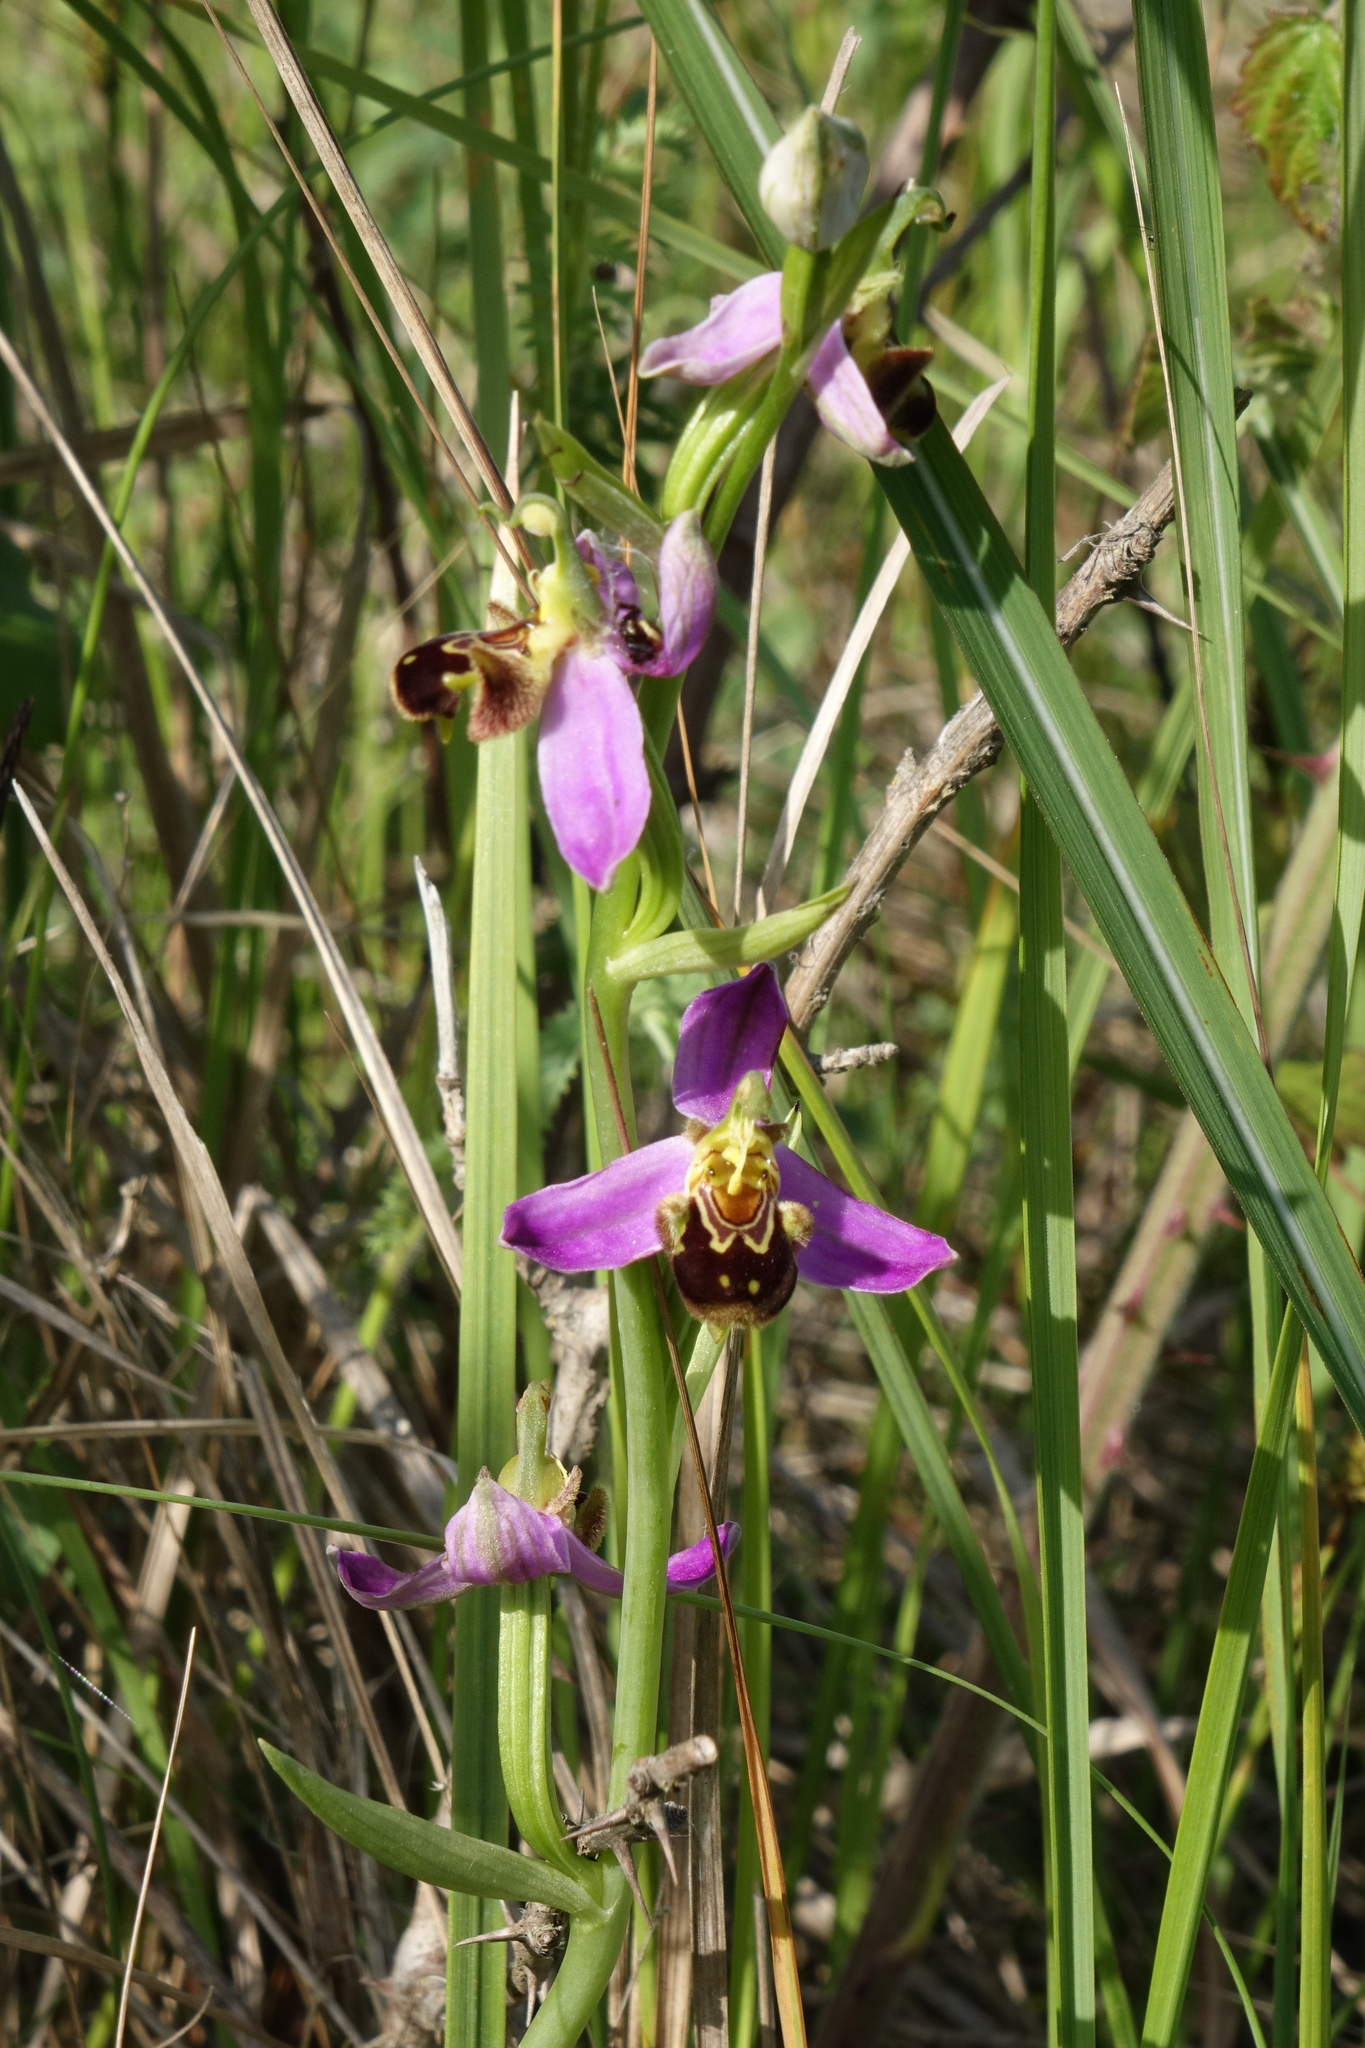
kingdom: Plantae
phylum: Tracheophyta
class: Liliopsida
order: Asparagales
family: Orchidaceae
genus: Ophrys
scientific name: Ophrys apifera
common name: Bee orchid
